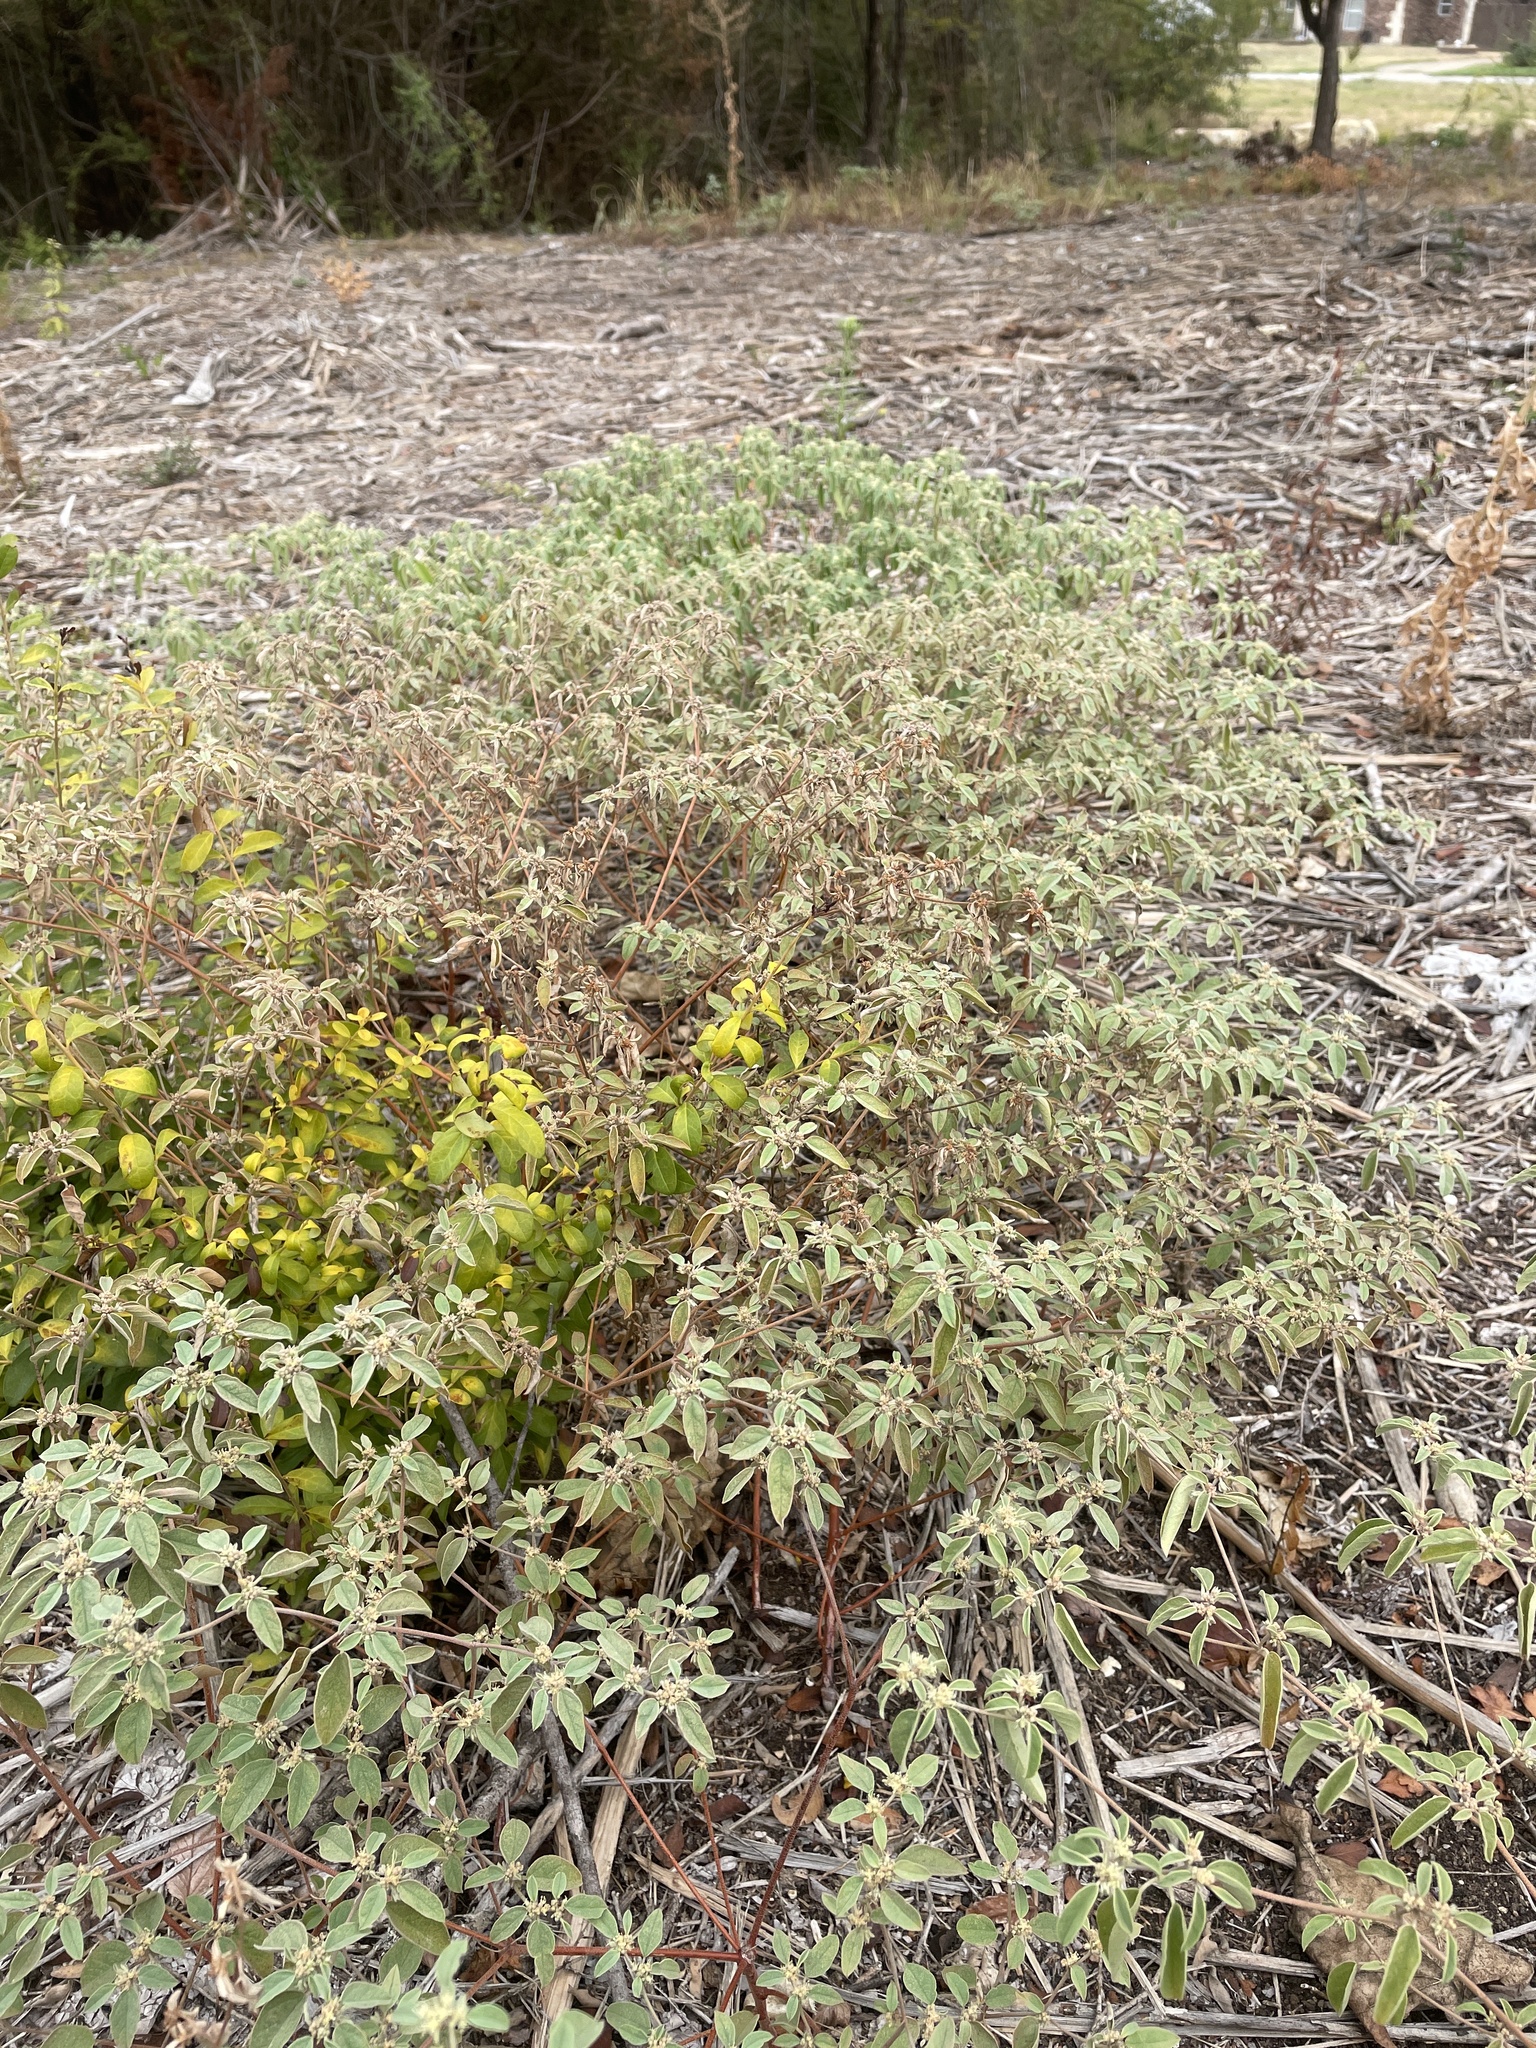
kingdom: Plantae
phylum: Tracheophyta
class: Magnoliopsida
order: Malpighiales
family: Euphorbiaceae
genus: Croton
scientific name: Croton monanthogynus
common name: One-seed croton
